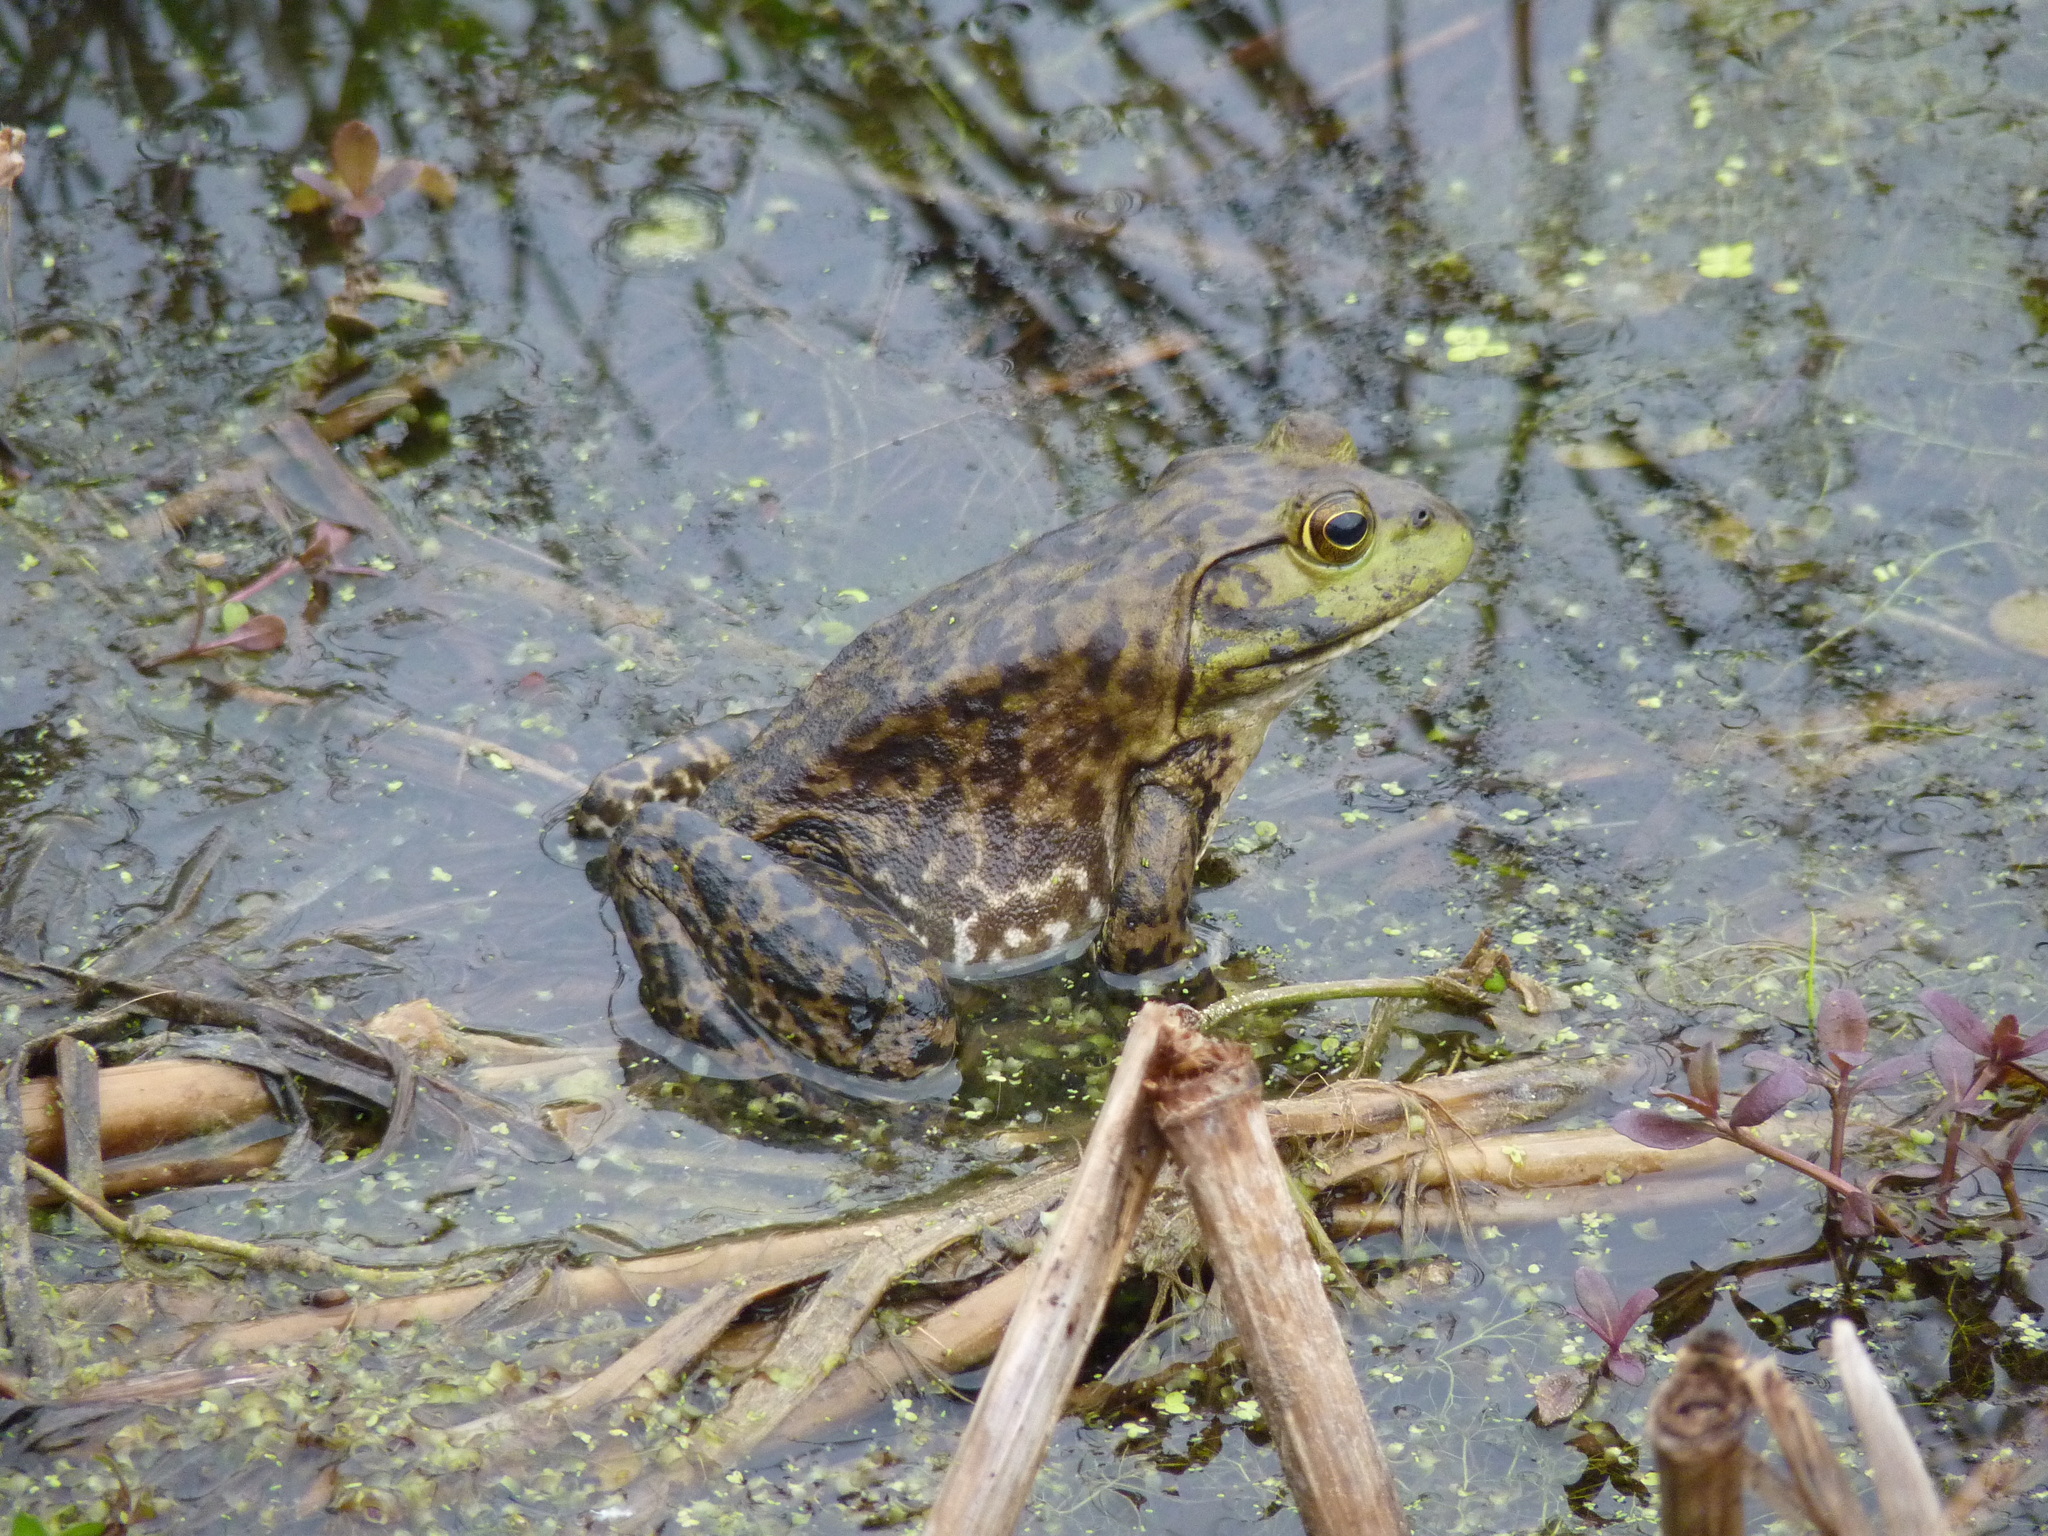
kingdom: Animalia
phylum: Chordata
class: Amphibia
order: Anura
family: Ranidae
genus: Lithobates
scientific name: Lithobates catesbeianus
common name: American bullfrog
